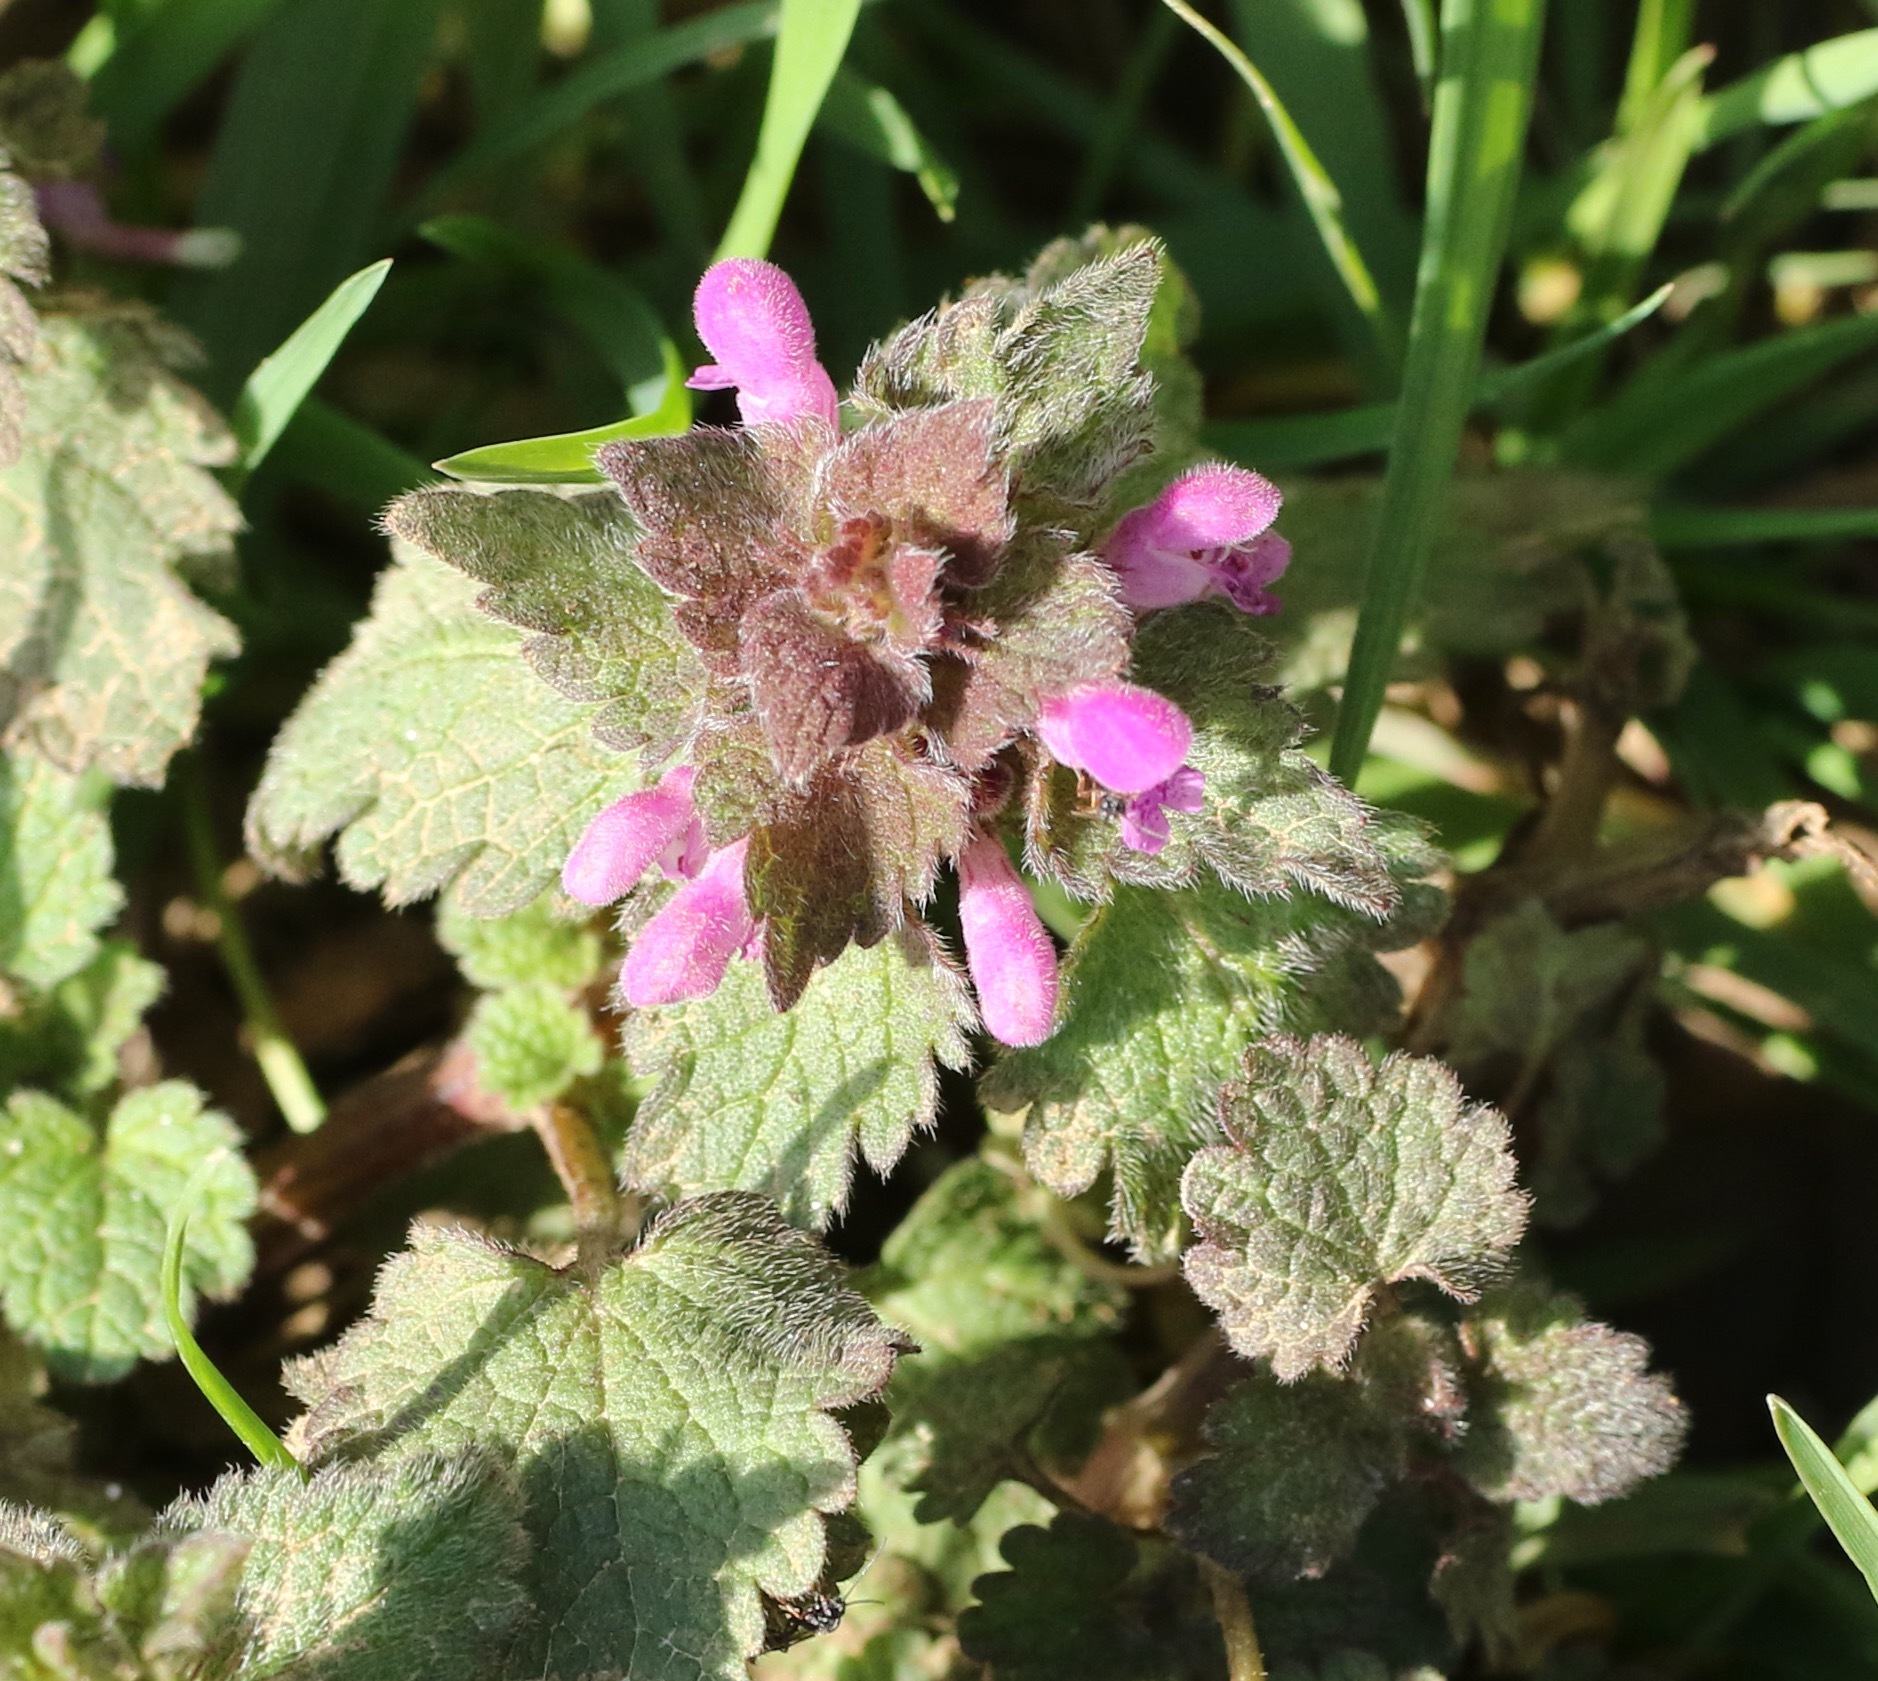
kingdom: Plantae
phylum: Tracheophyta
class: Magnoliopsida
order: Lamiales
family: Lamiaceae
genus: Lamium
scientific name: Lamium purpureum
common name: Red dead-nettle
